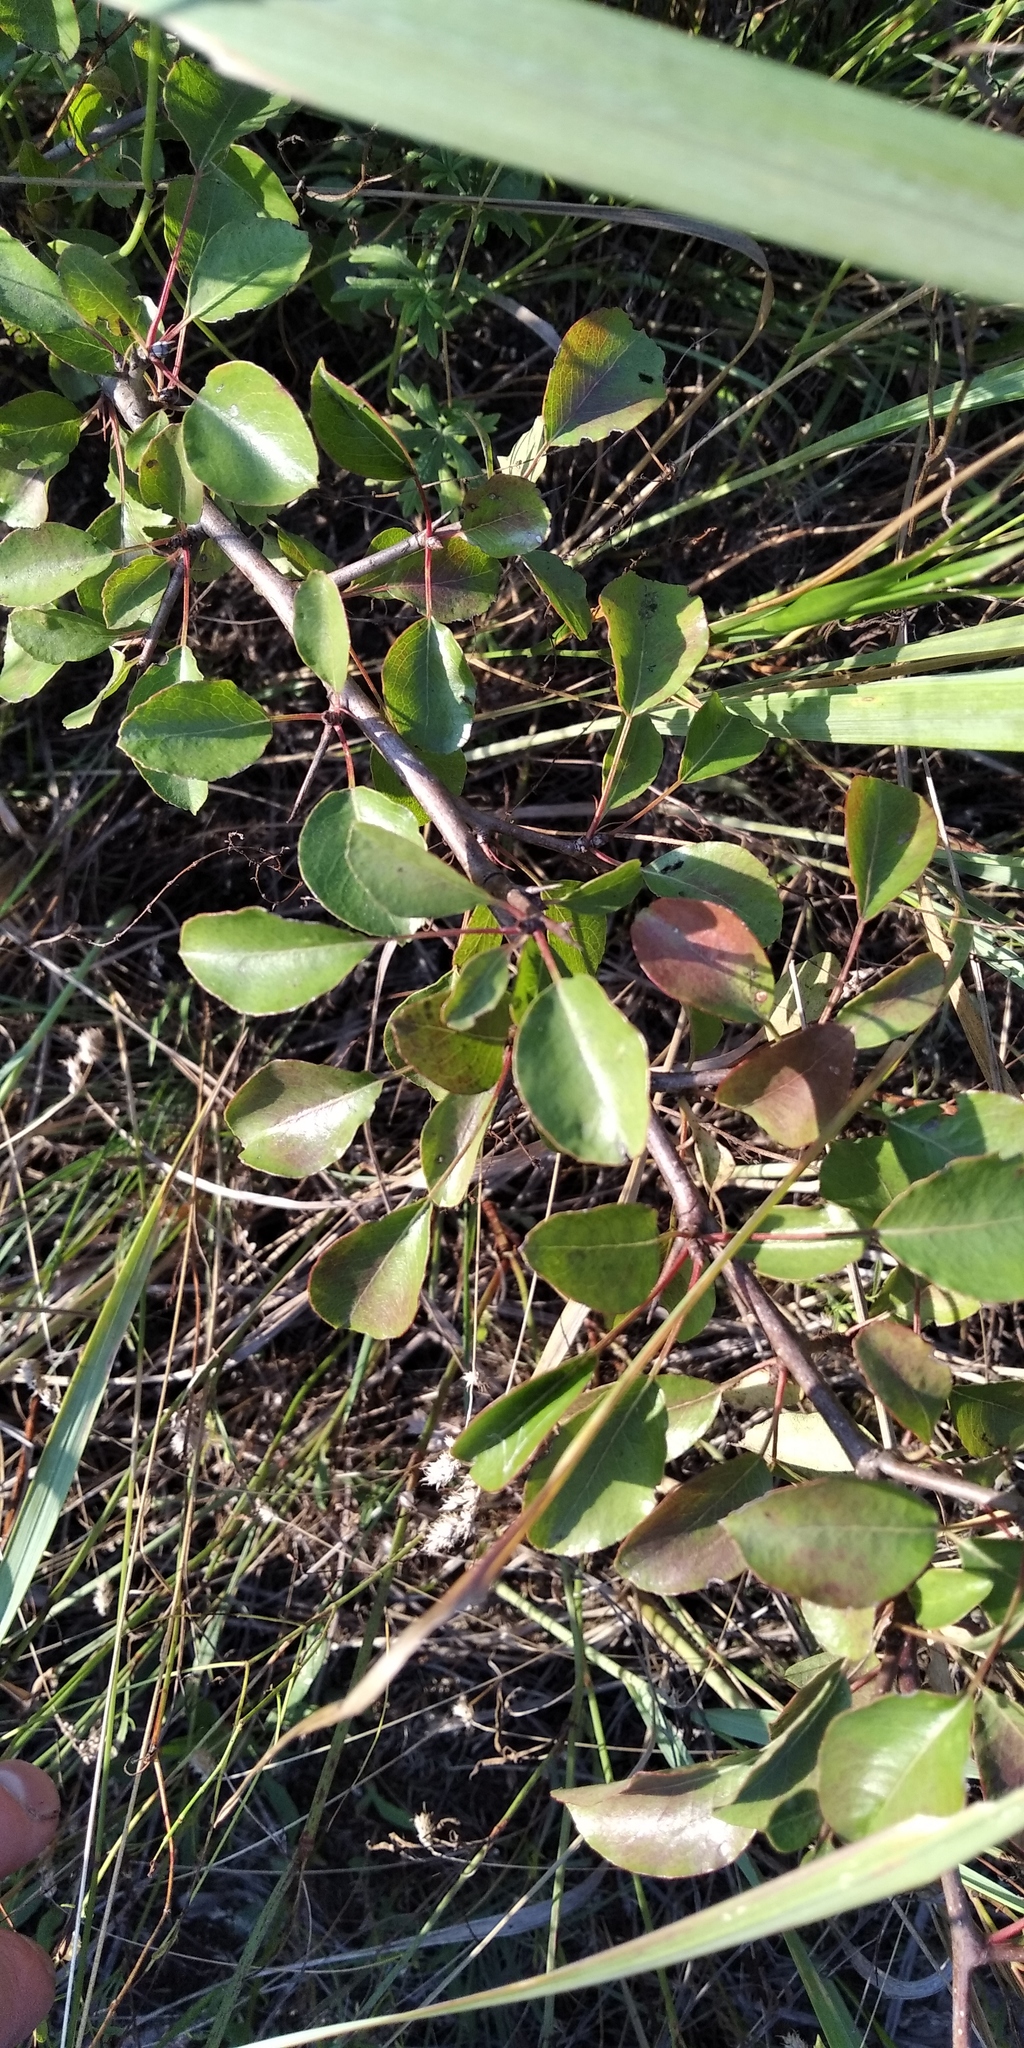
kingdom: Plantae
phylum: Tracheophyta
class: Magnoliopsida
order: Rosales
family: Rosaceae
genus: Pyrus
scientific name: Pyrus
